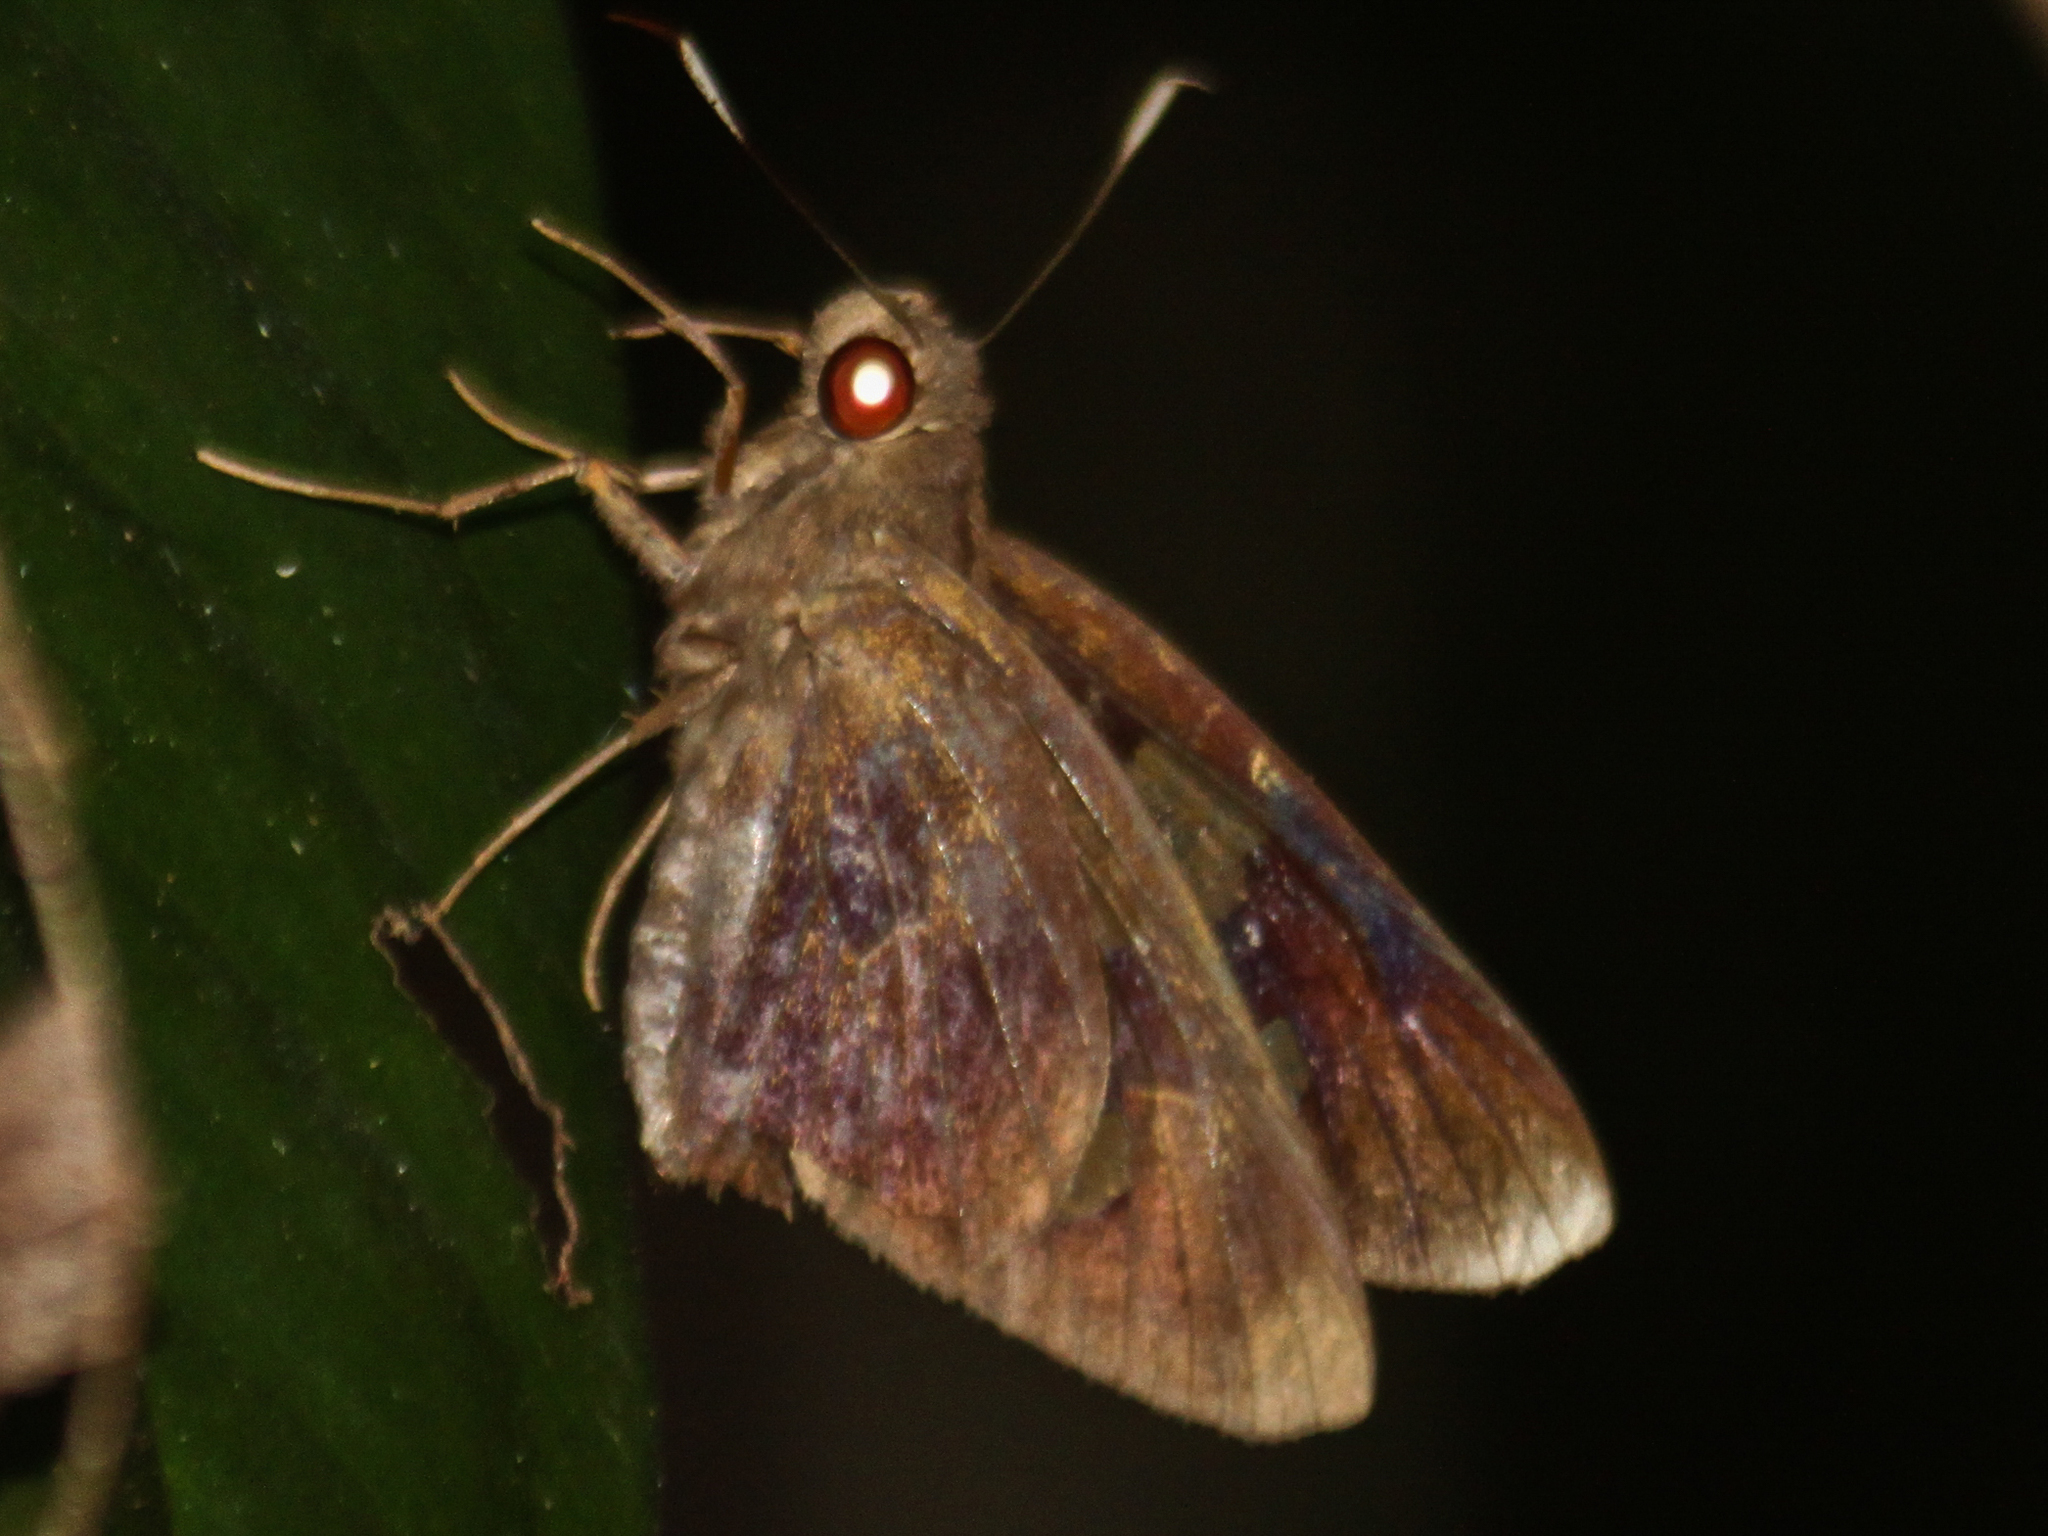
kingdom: Animalia
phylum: Arthropoda
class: Insecta
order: Lepidoptera
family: Hesperiidae
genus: Erionota
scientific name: Erionota acroleucus
